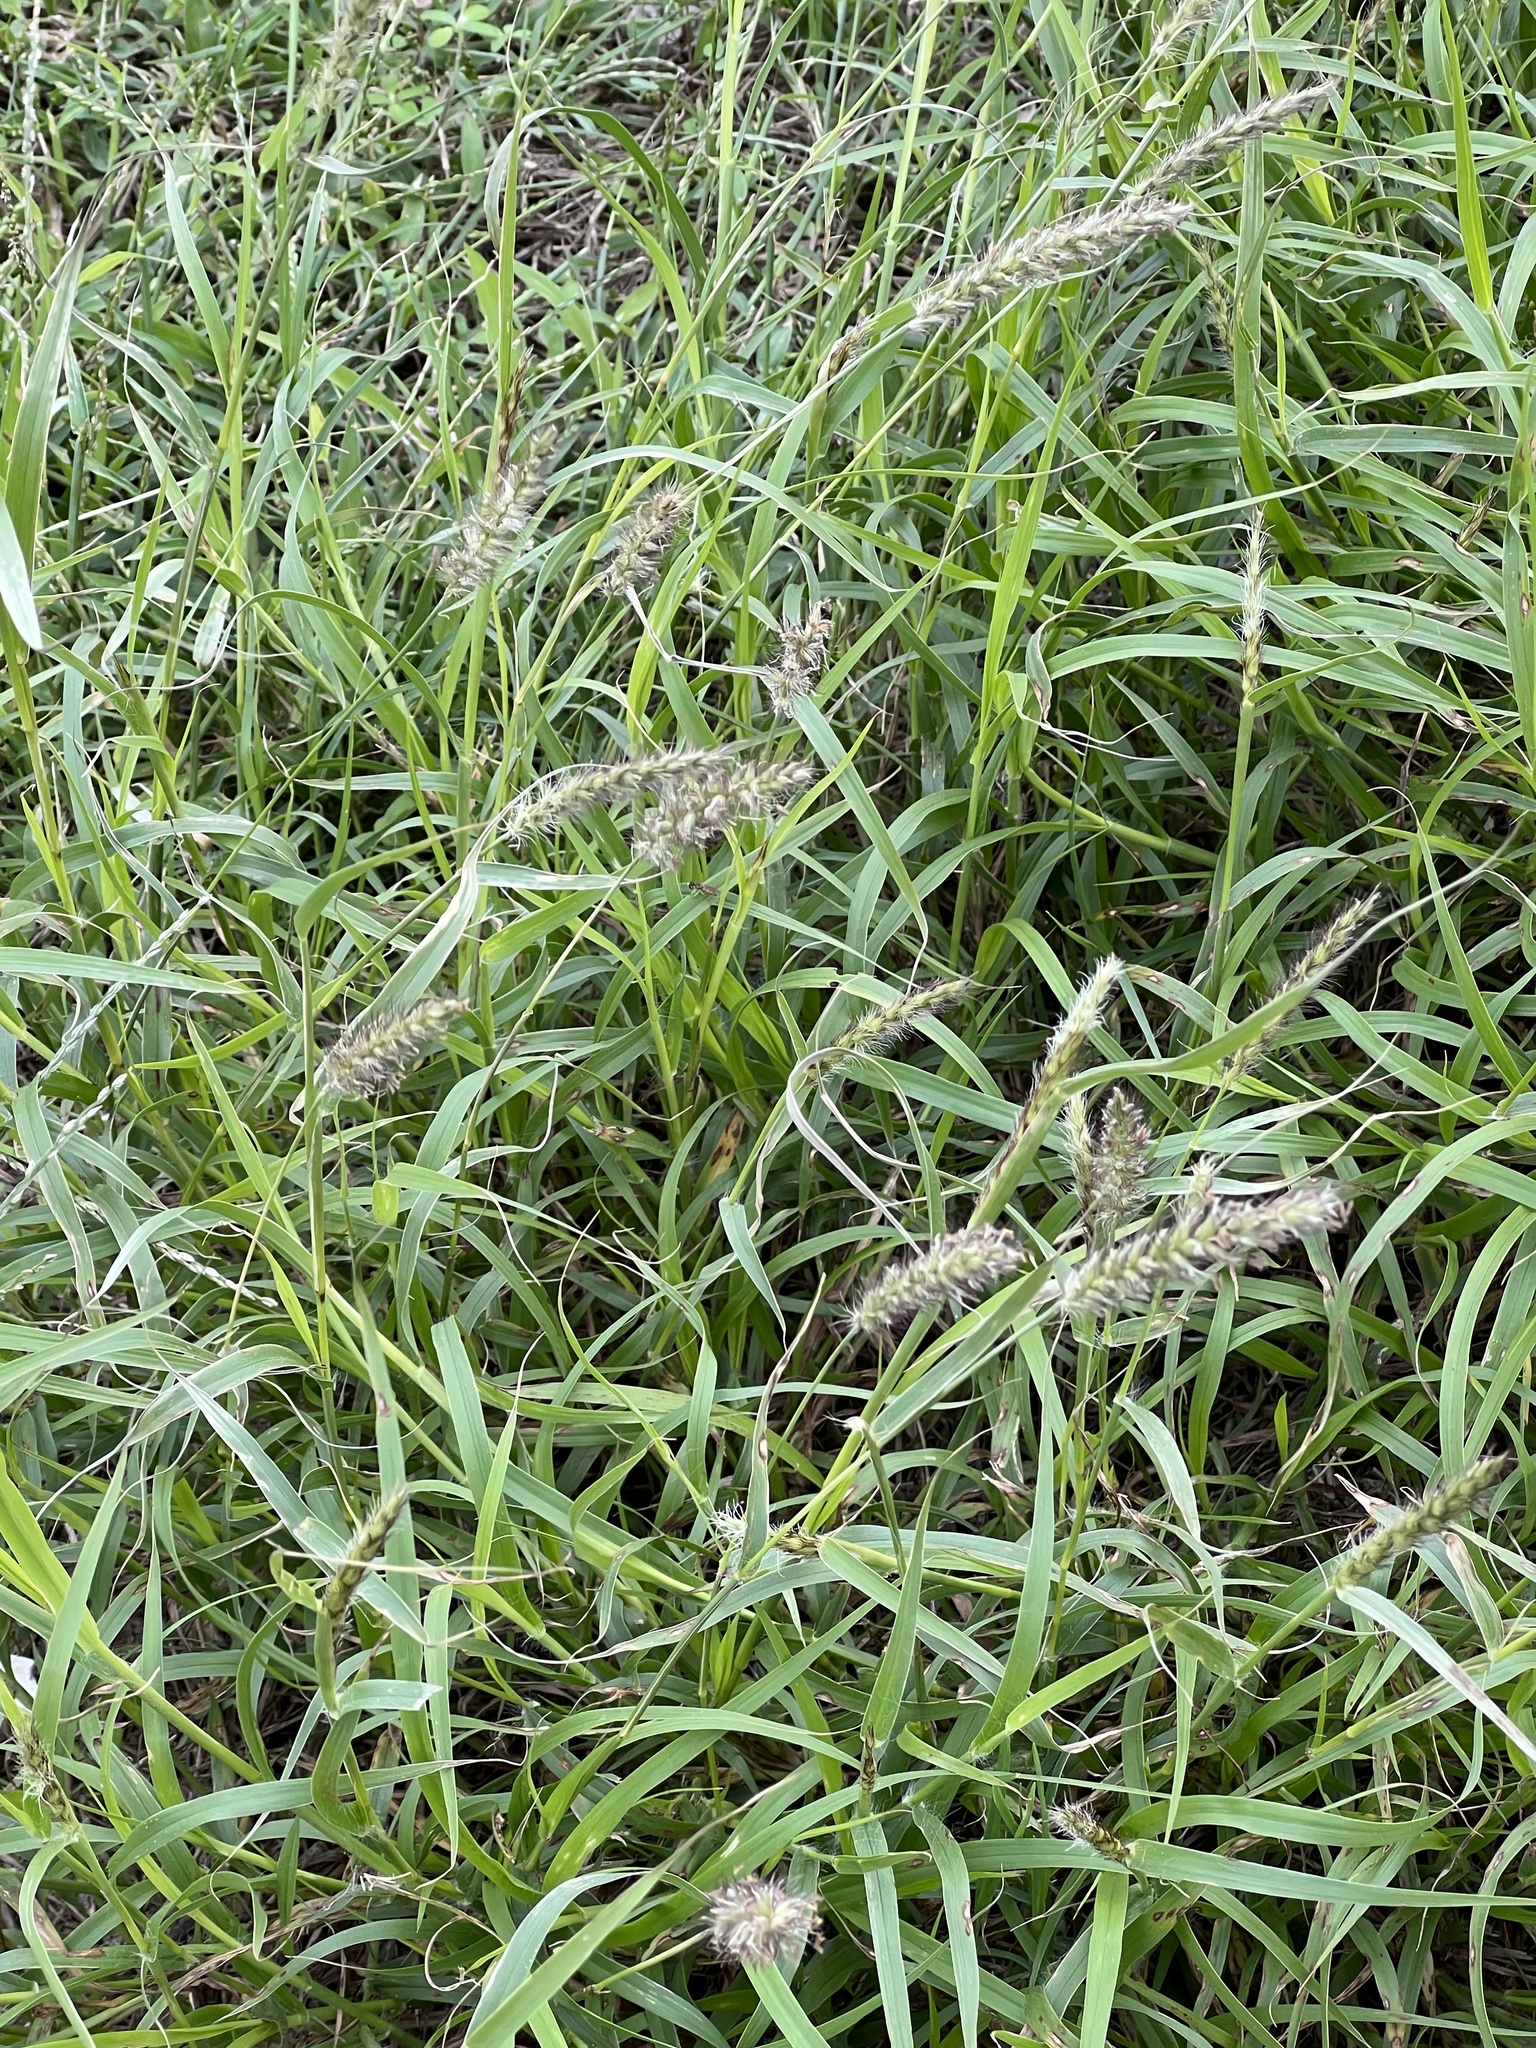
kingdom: Plantae
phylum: Tracheophyta
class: Liliopsida
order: Poales
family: Poaceae
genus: Cenchrus
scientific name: Cenchrus ciliaris
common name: Buffelgrass
